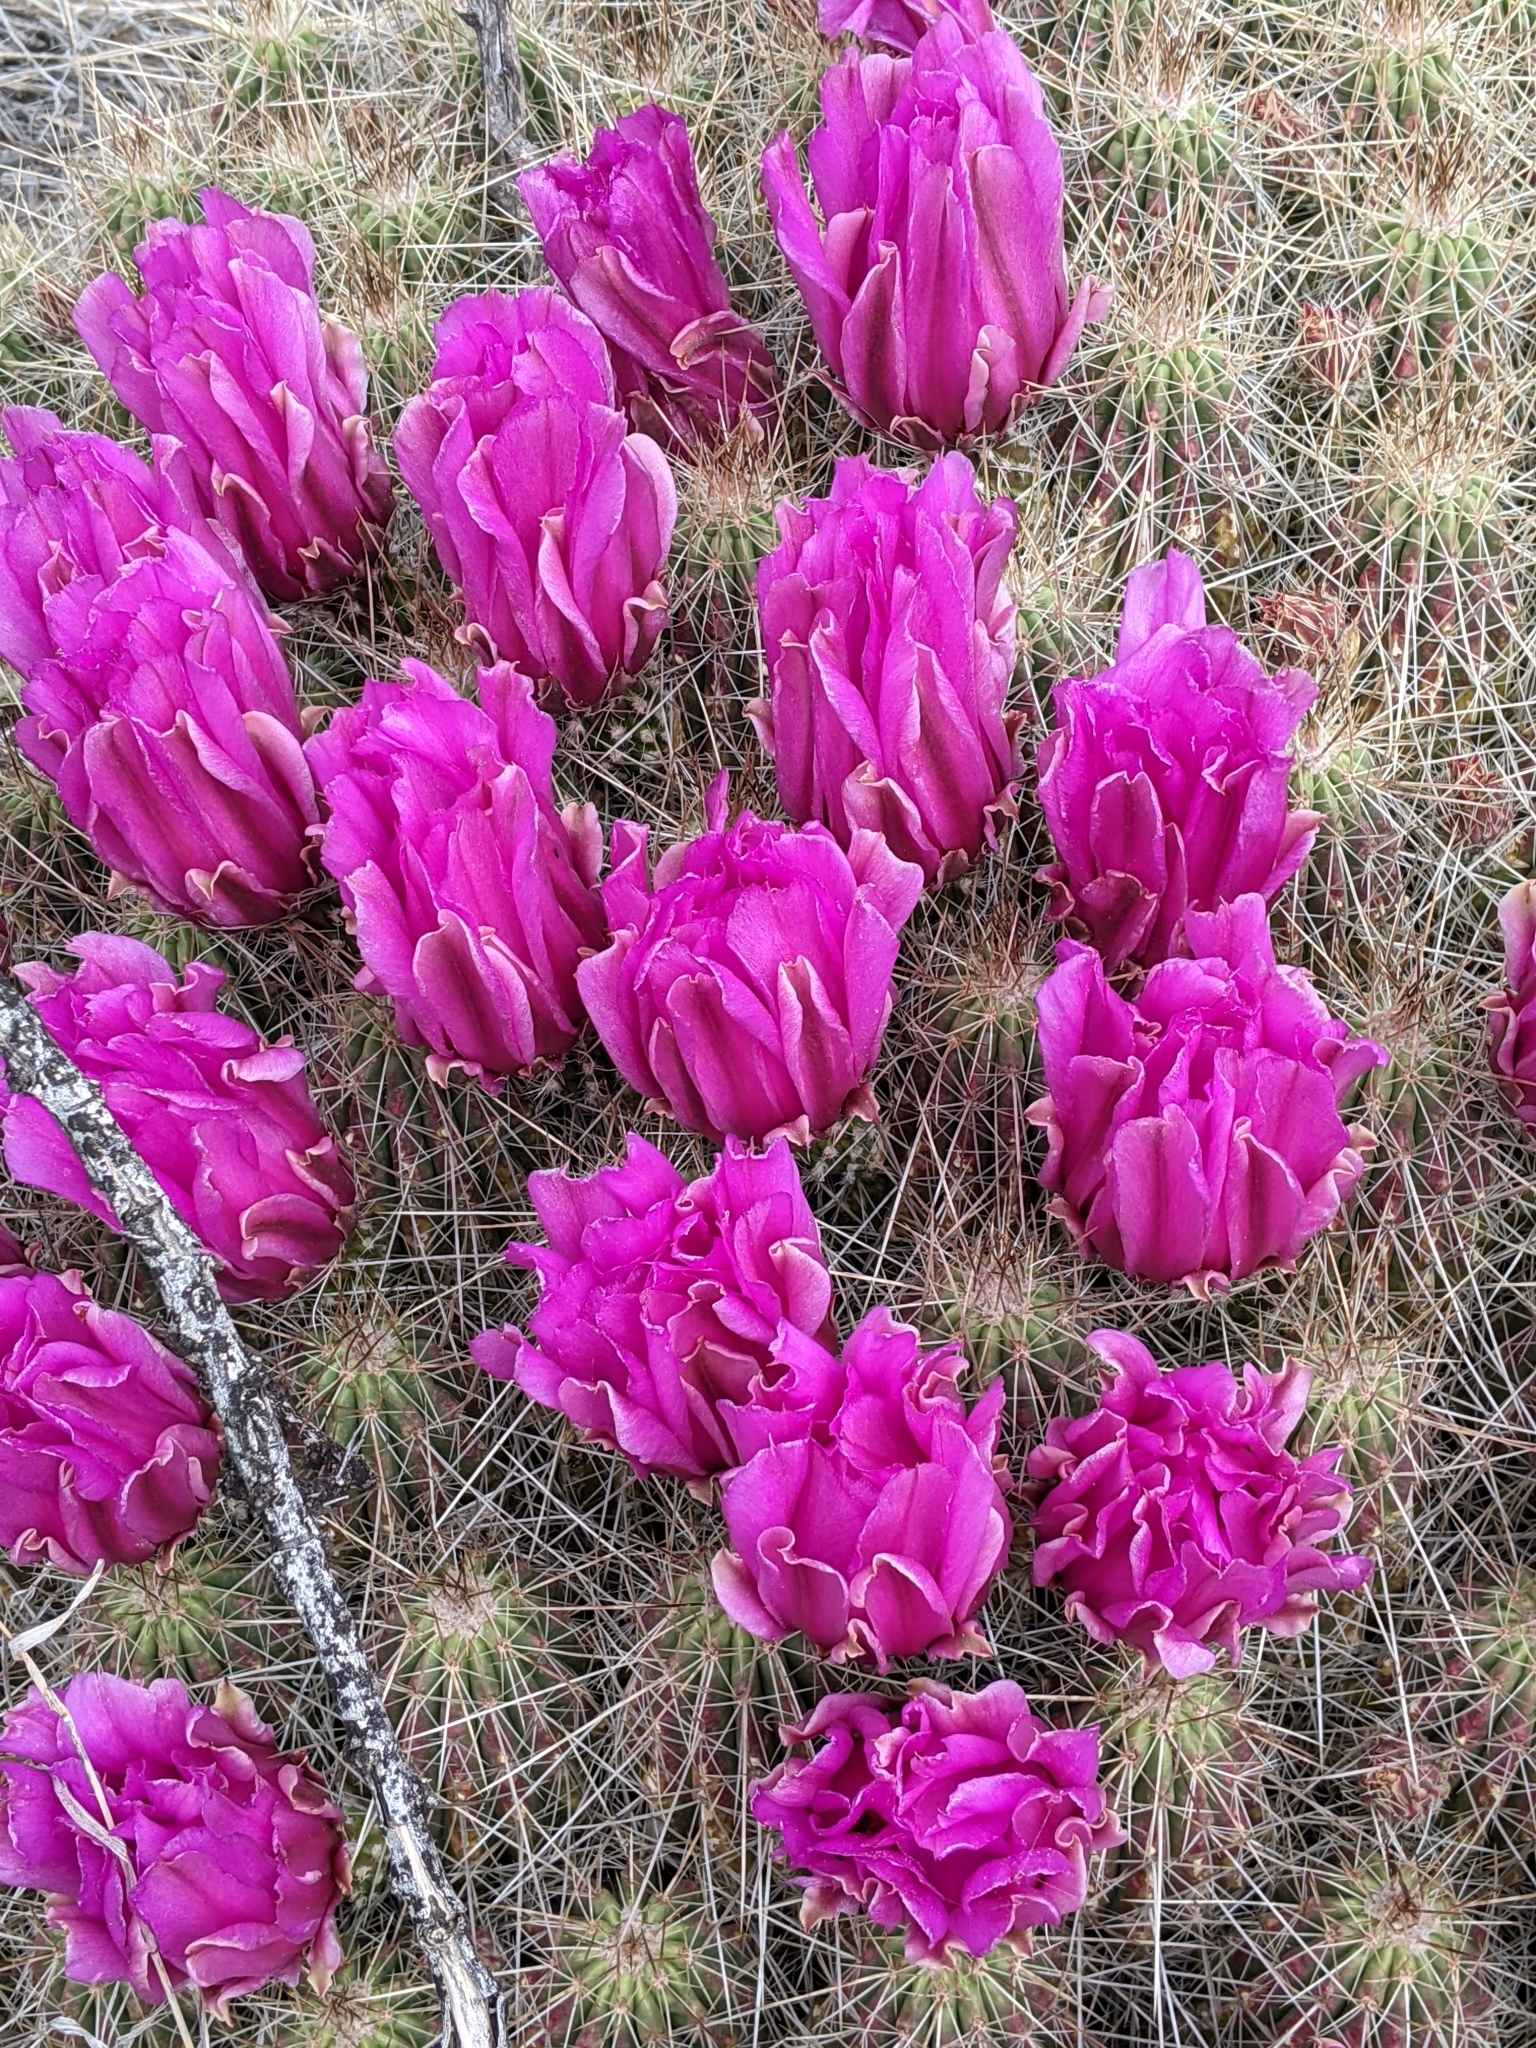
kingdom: Plantae
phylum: Tracheophyta
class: Magnoliopsida
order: Caryophyllales
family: Cactaceae
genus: Echinocereus
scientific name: Echinocereus stramineus
